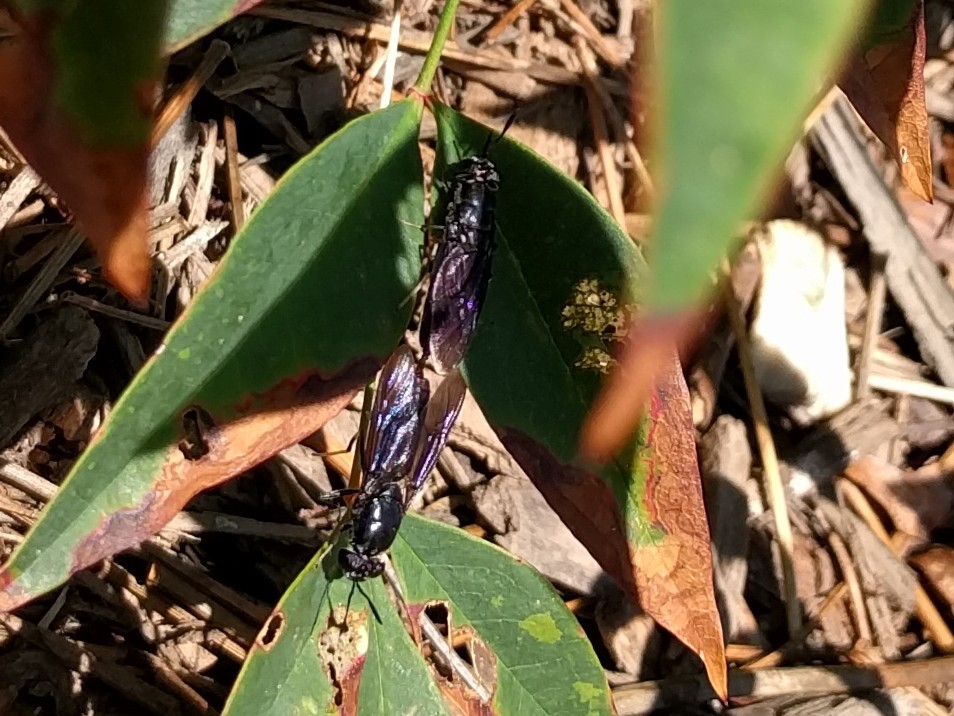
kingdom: Animalia
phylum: Arthropoda
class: Insecta
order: Diptera
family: Stratiomyidae
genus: Hermetia
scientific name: Hermetia illucens
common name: Black soldier fly
